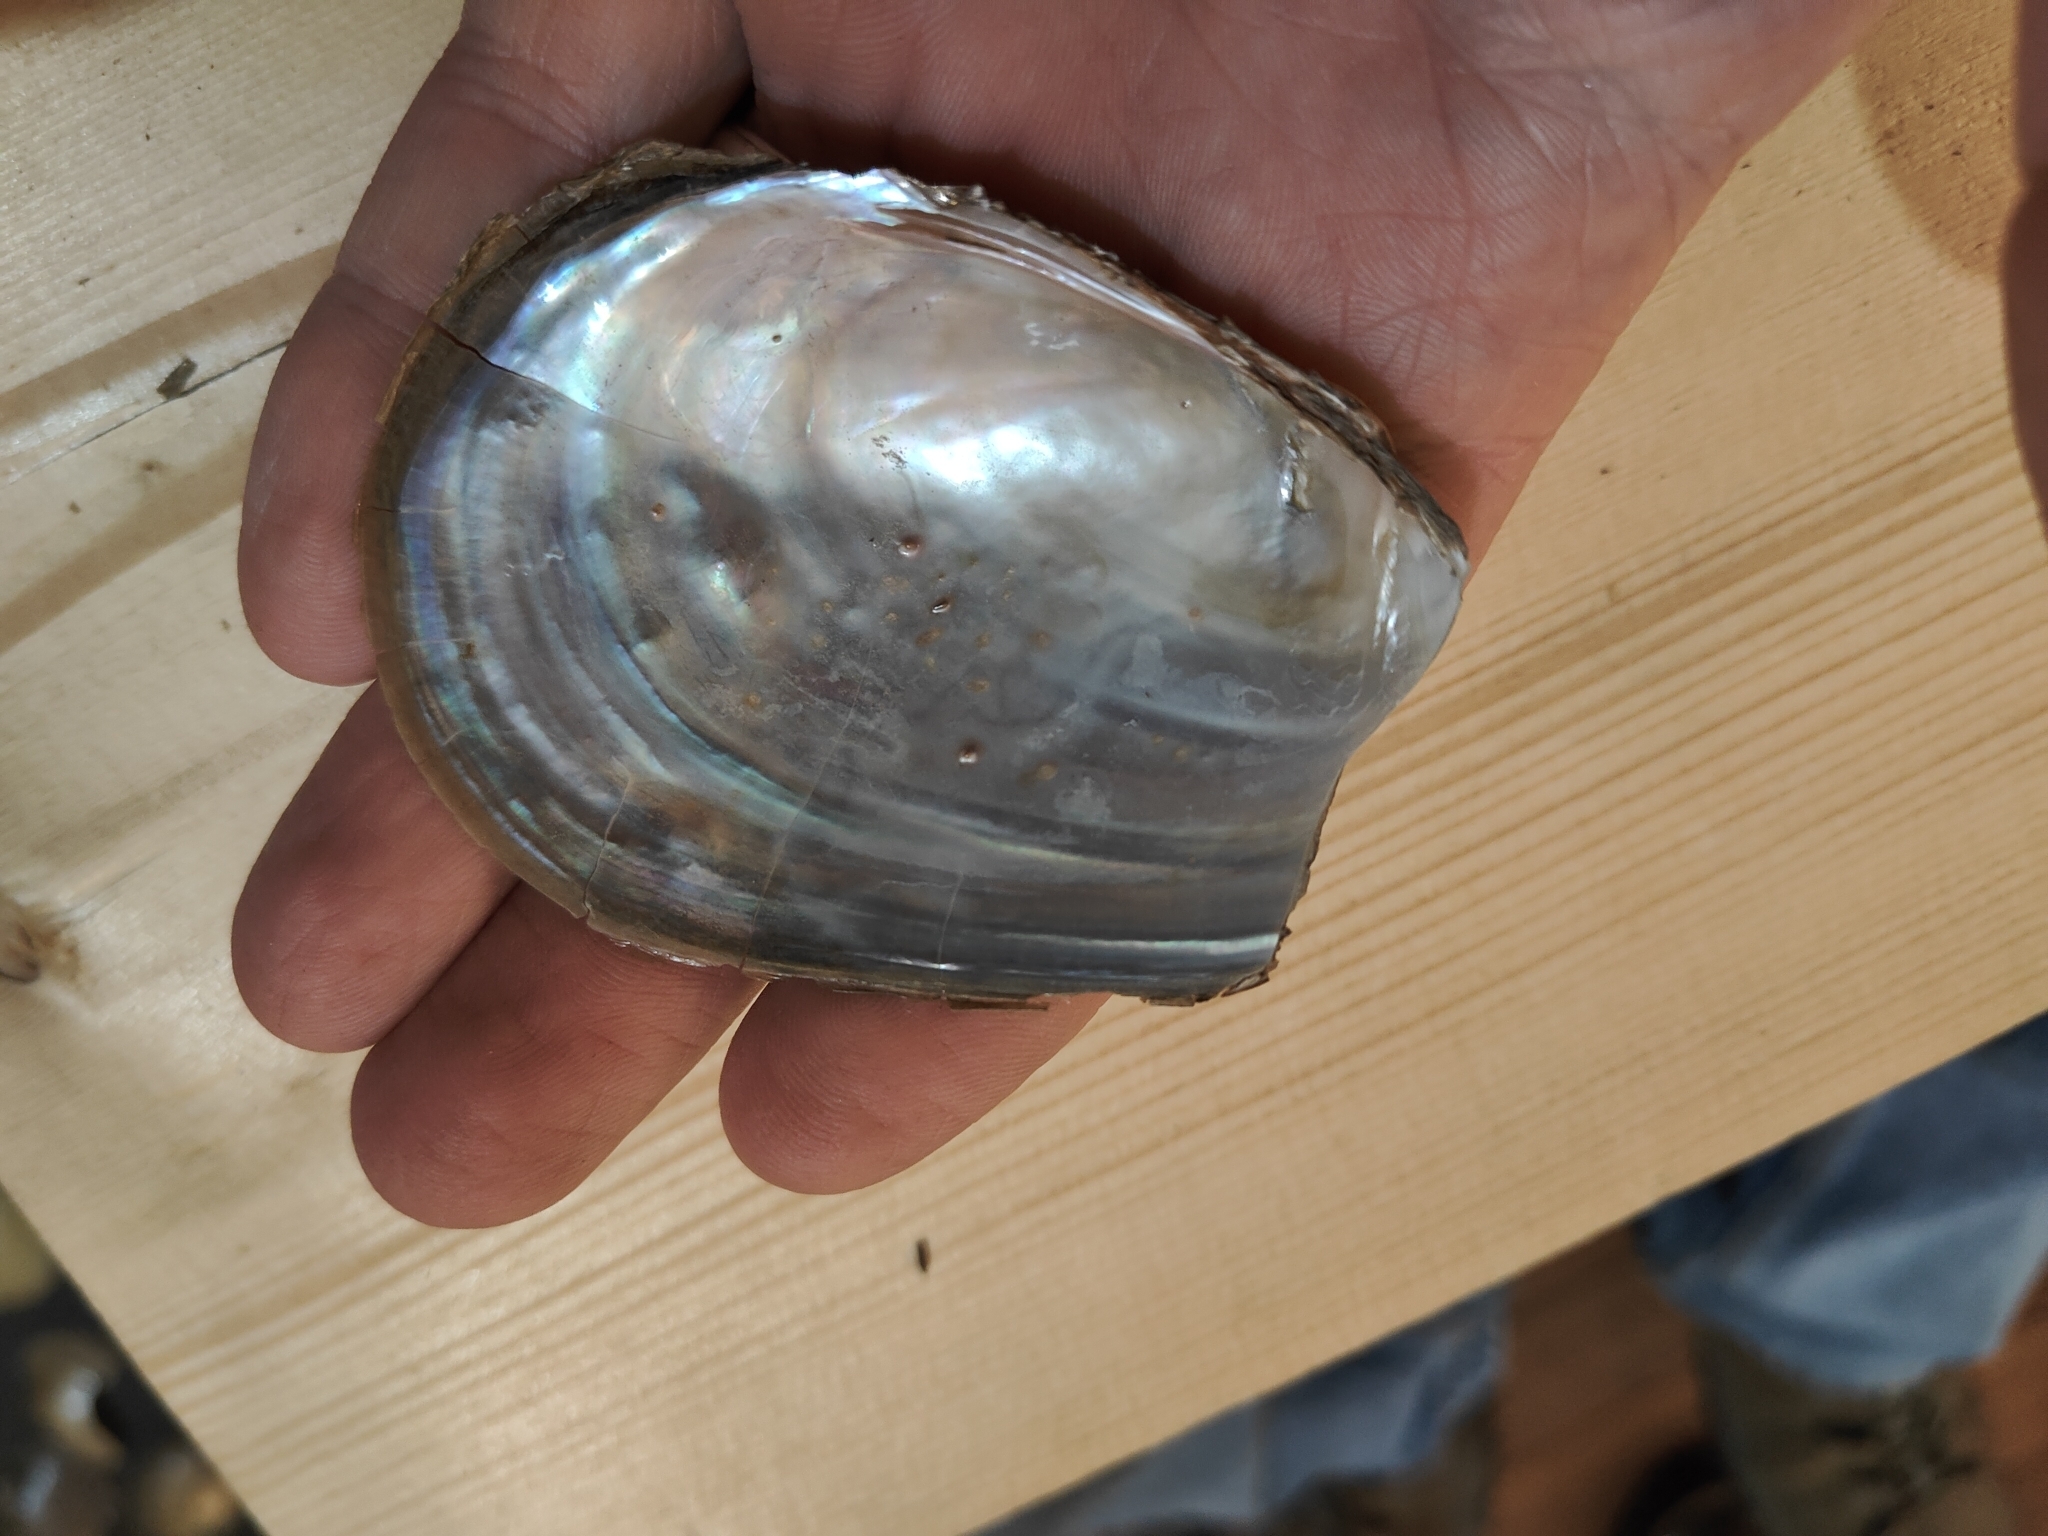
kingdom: Animalia
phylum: Mollusca
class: Bivalvia
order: Unionida
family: Unionidae
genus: Potamilus
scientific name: Potamilus fragilis
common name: Fragile papershell
